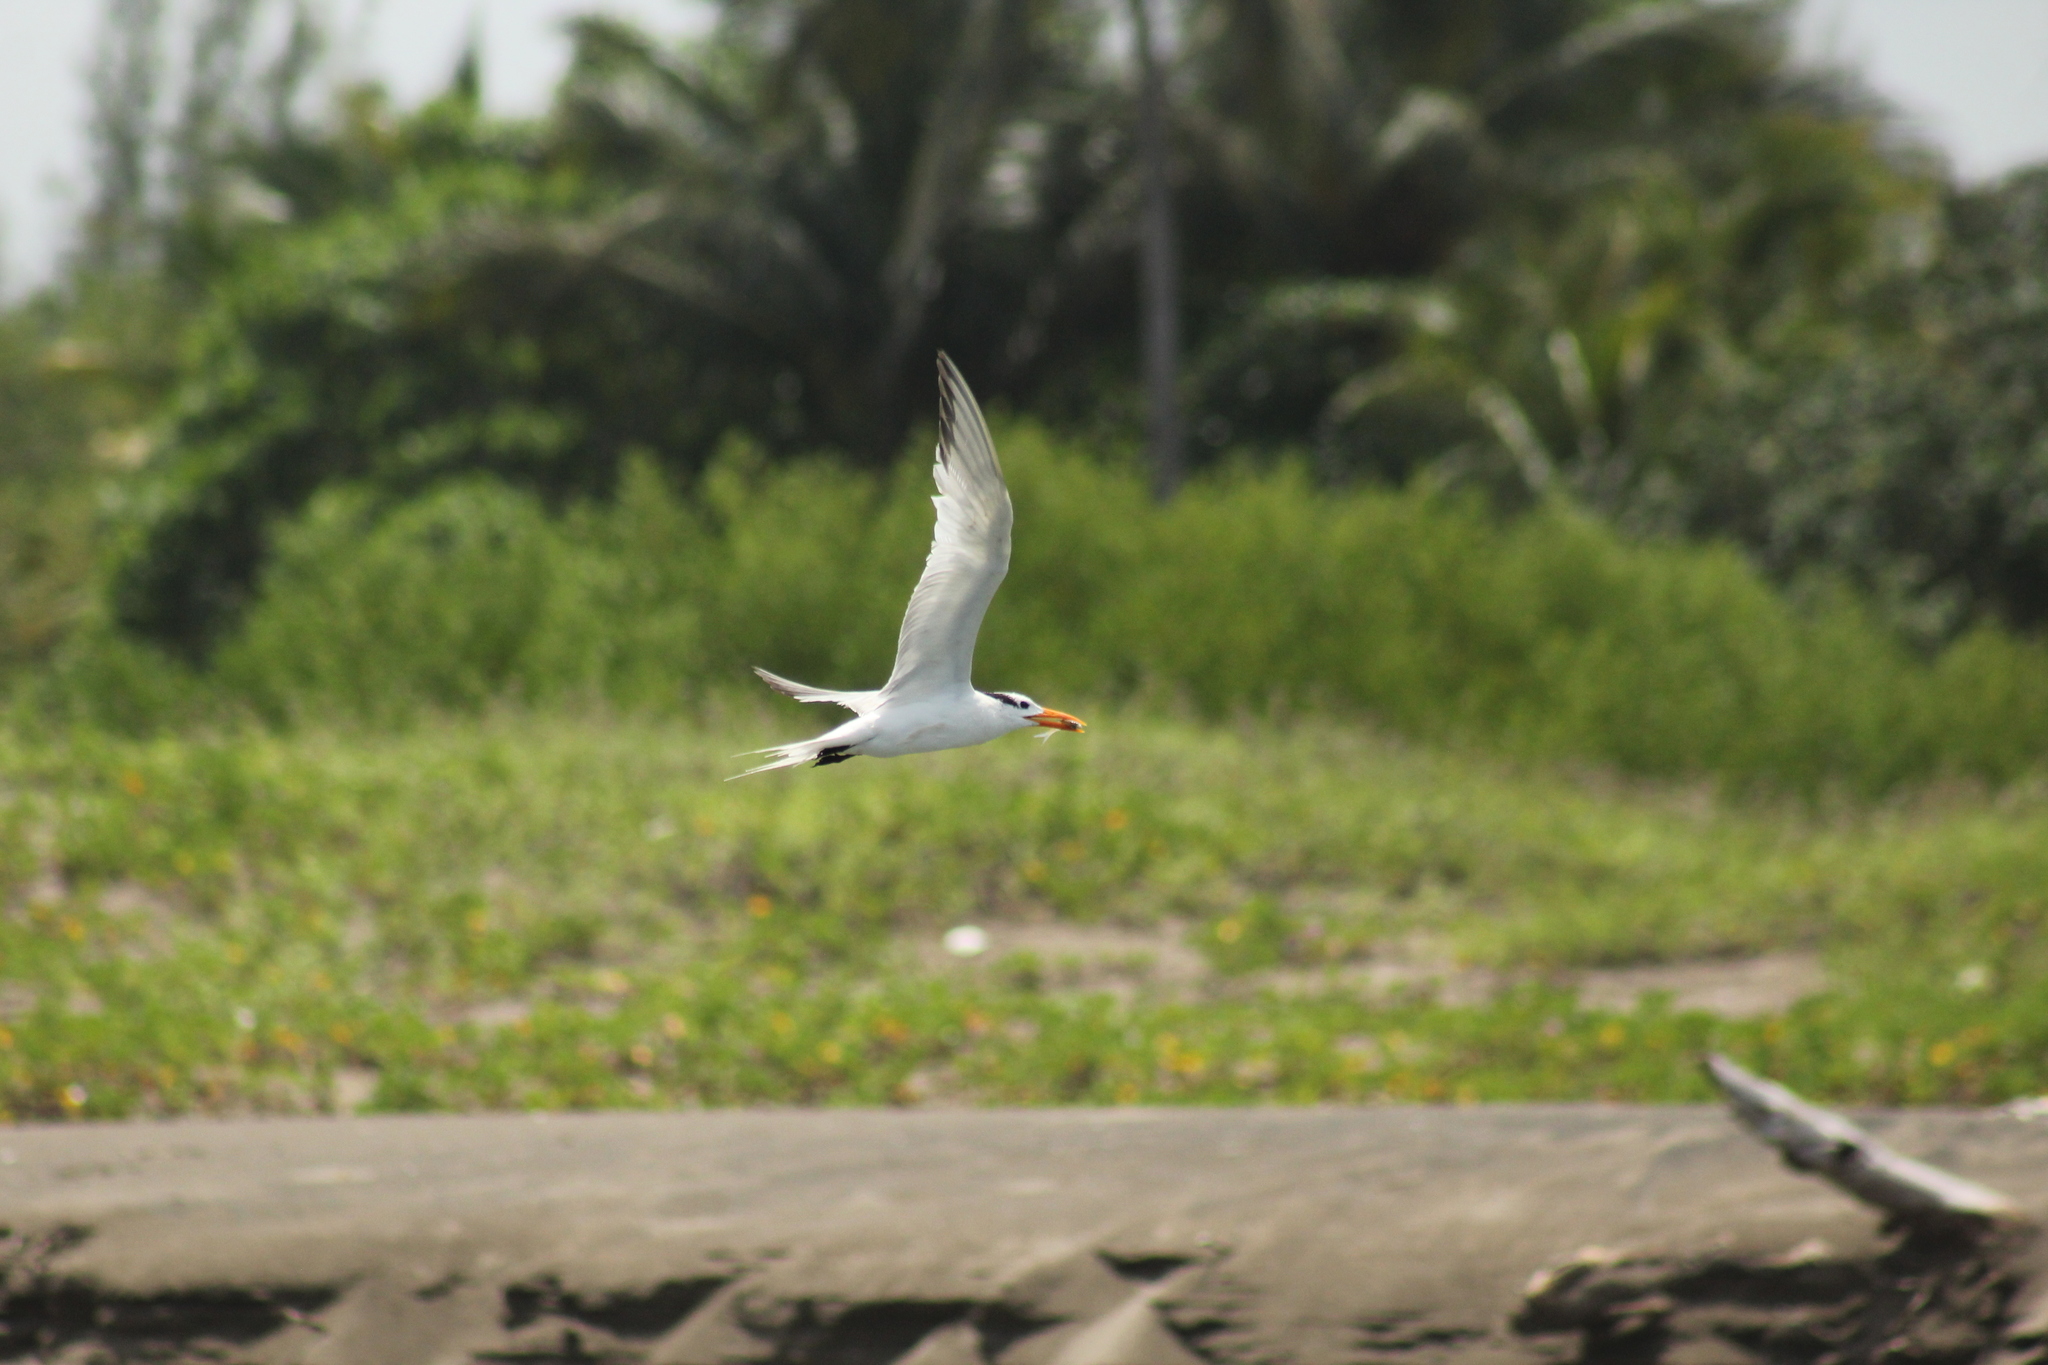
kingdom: Animalia
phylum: Chordata
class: Aves
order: Charadriiformes
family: Laridae
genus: Thalasseus
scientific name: Thalasseus maximus
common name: Royal tern
